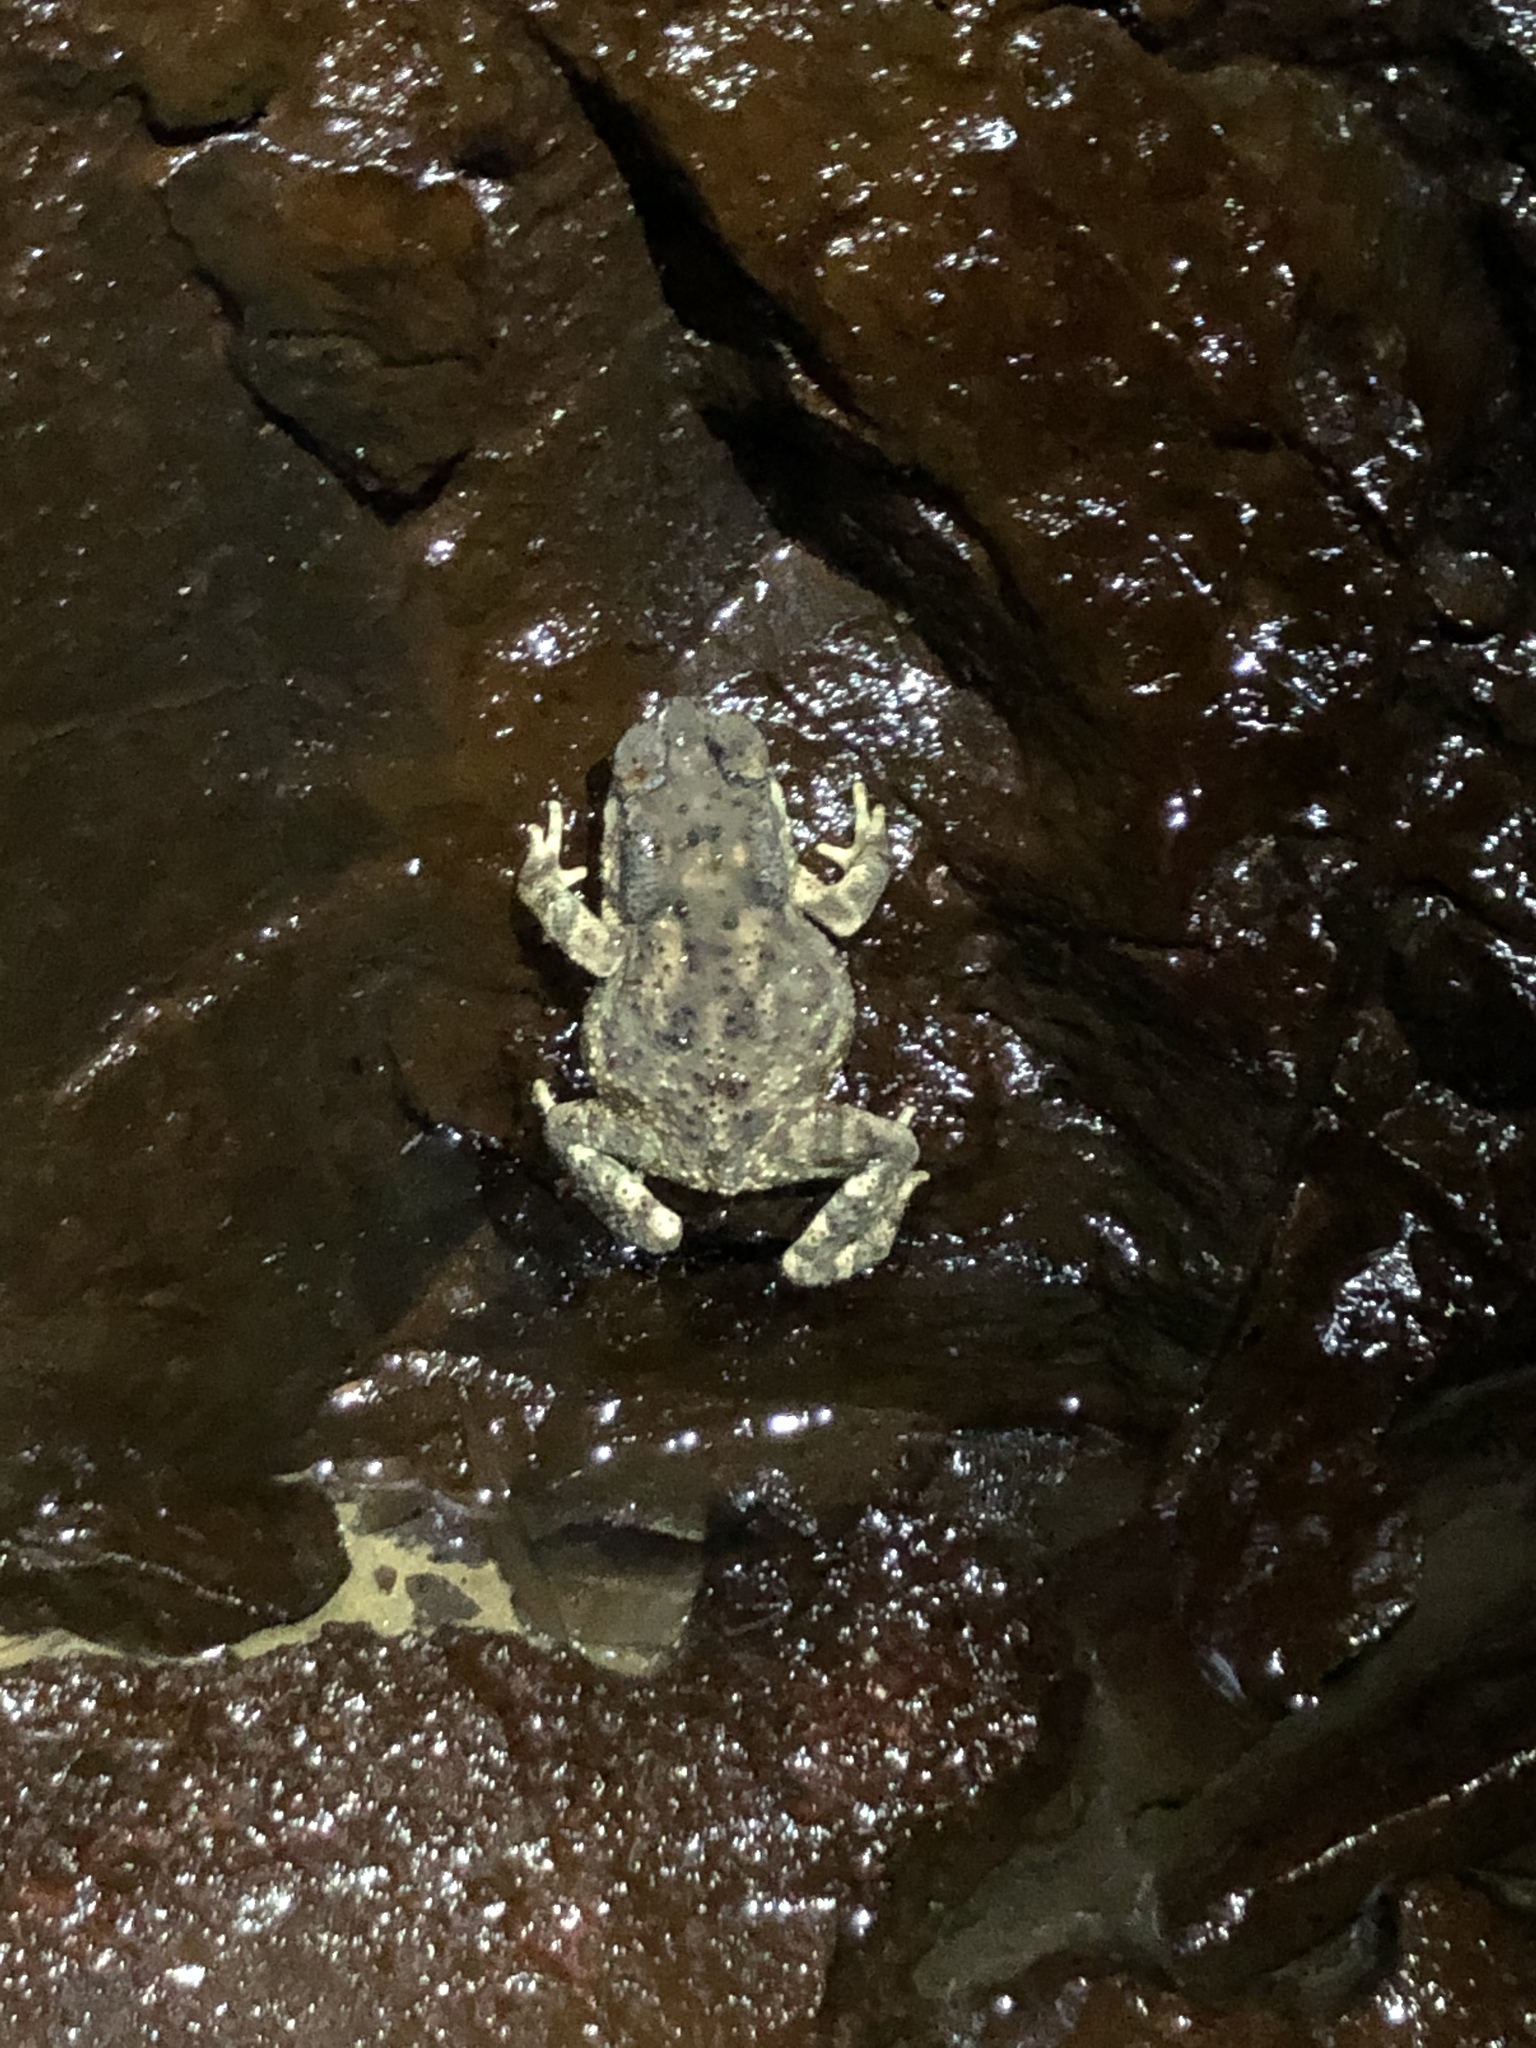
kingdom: Animalia
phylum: Chordata
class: Amphibia
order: Anura
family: Bufonidae
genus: Duttaphrynus
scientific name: Duttaphrynus melanostictus
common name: Common sunda toad
